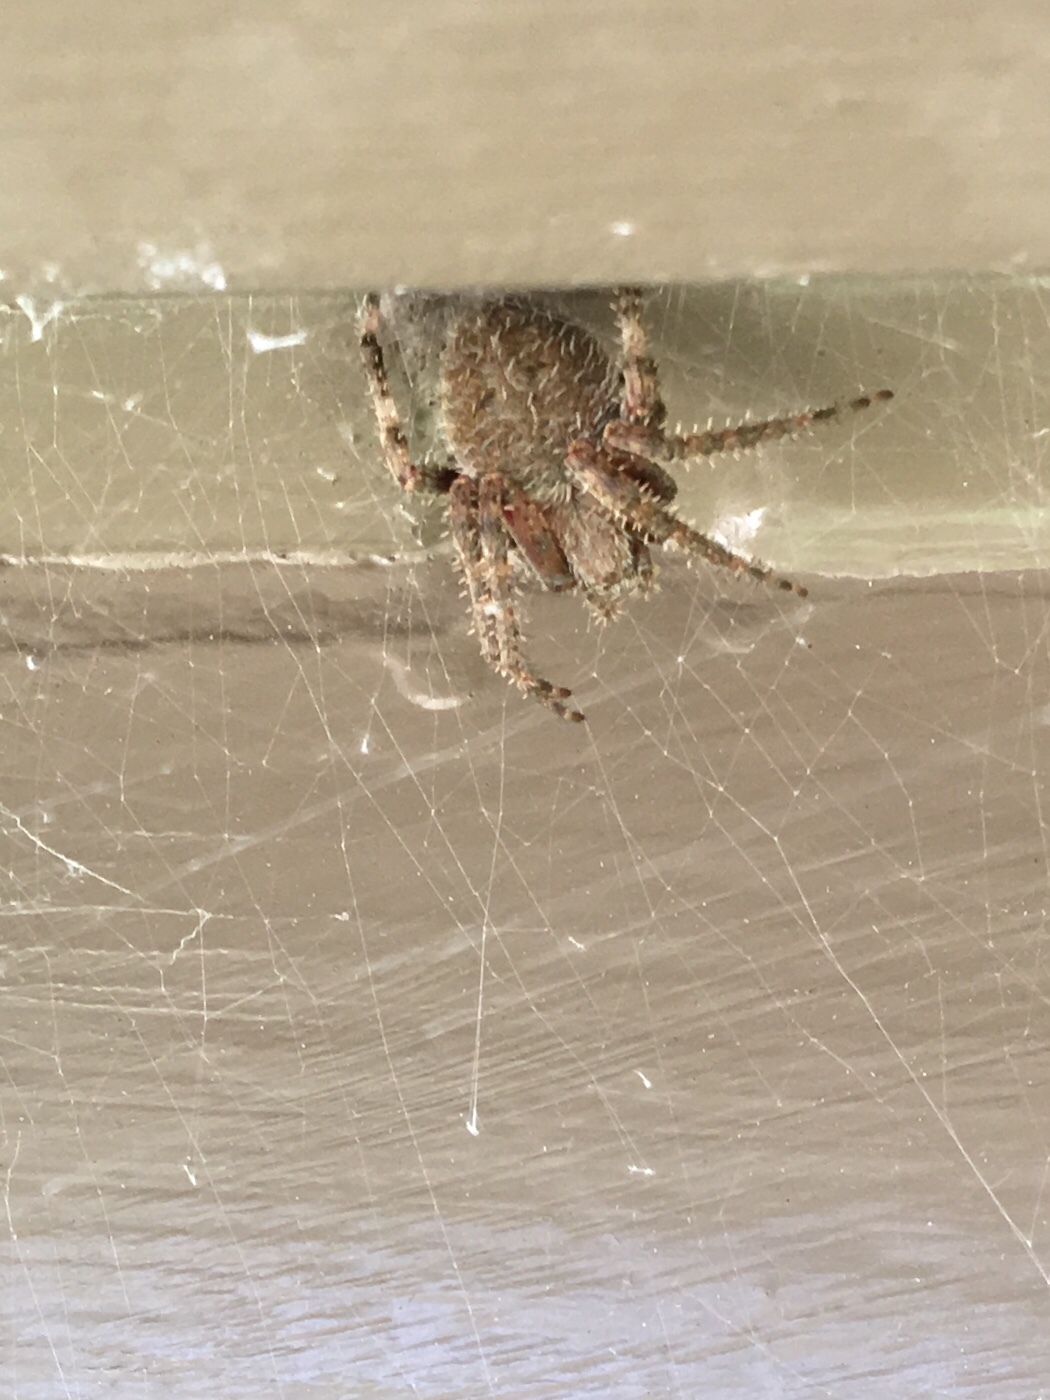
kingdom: Animalia
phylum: Arthropoda
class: Arachnida
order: Araneae
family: Araneidae
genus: Neoscona
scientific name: Neoscona crucifera
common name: Spotted orbweaver
